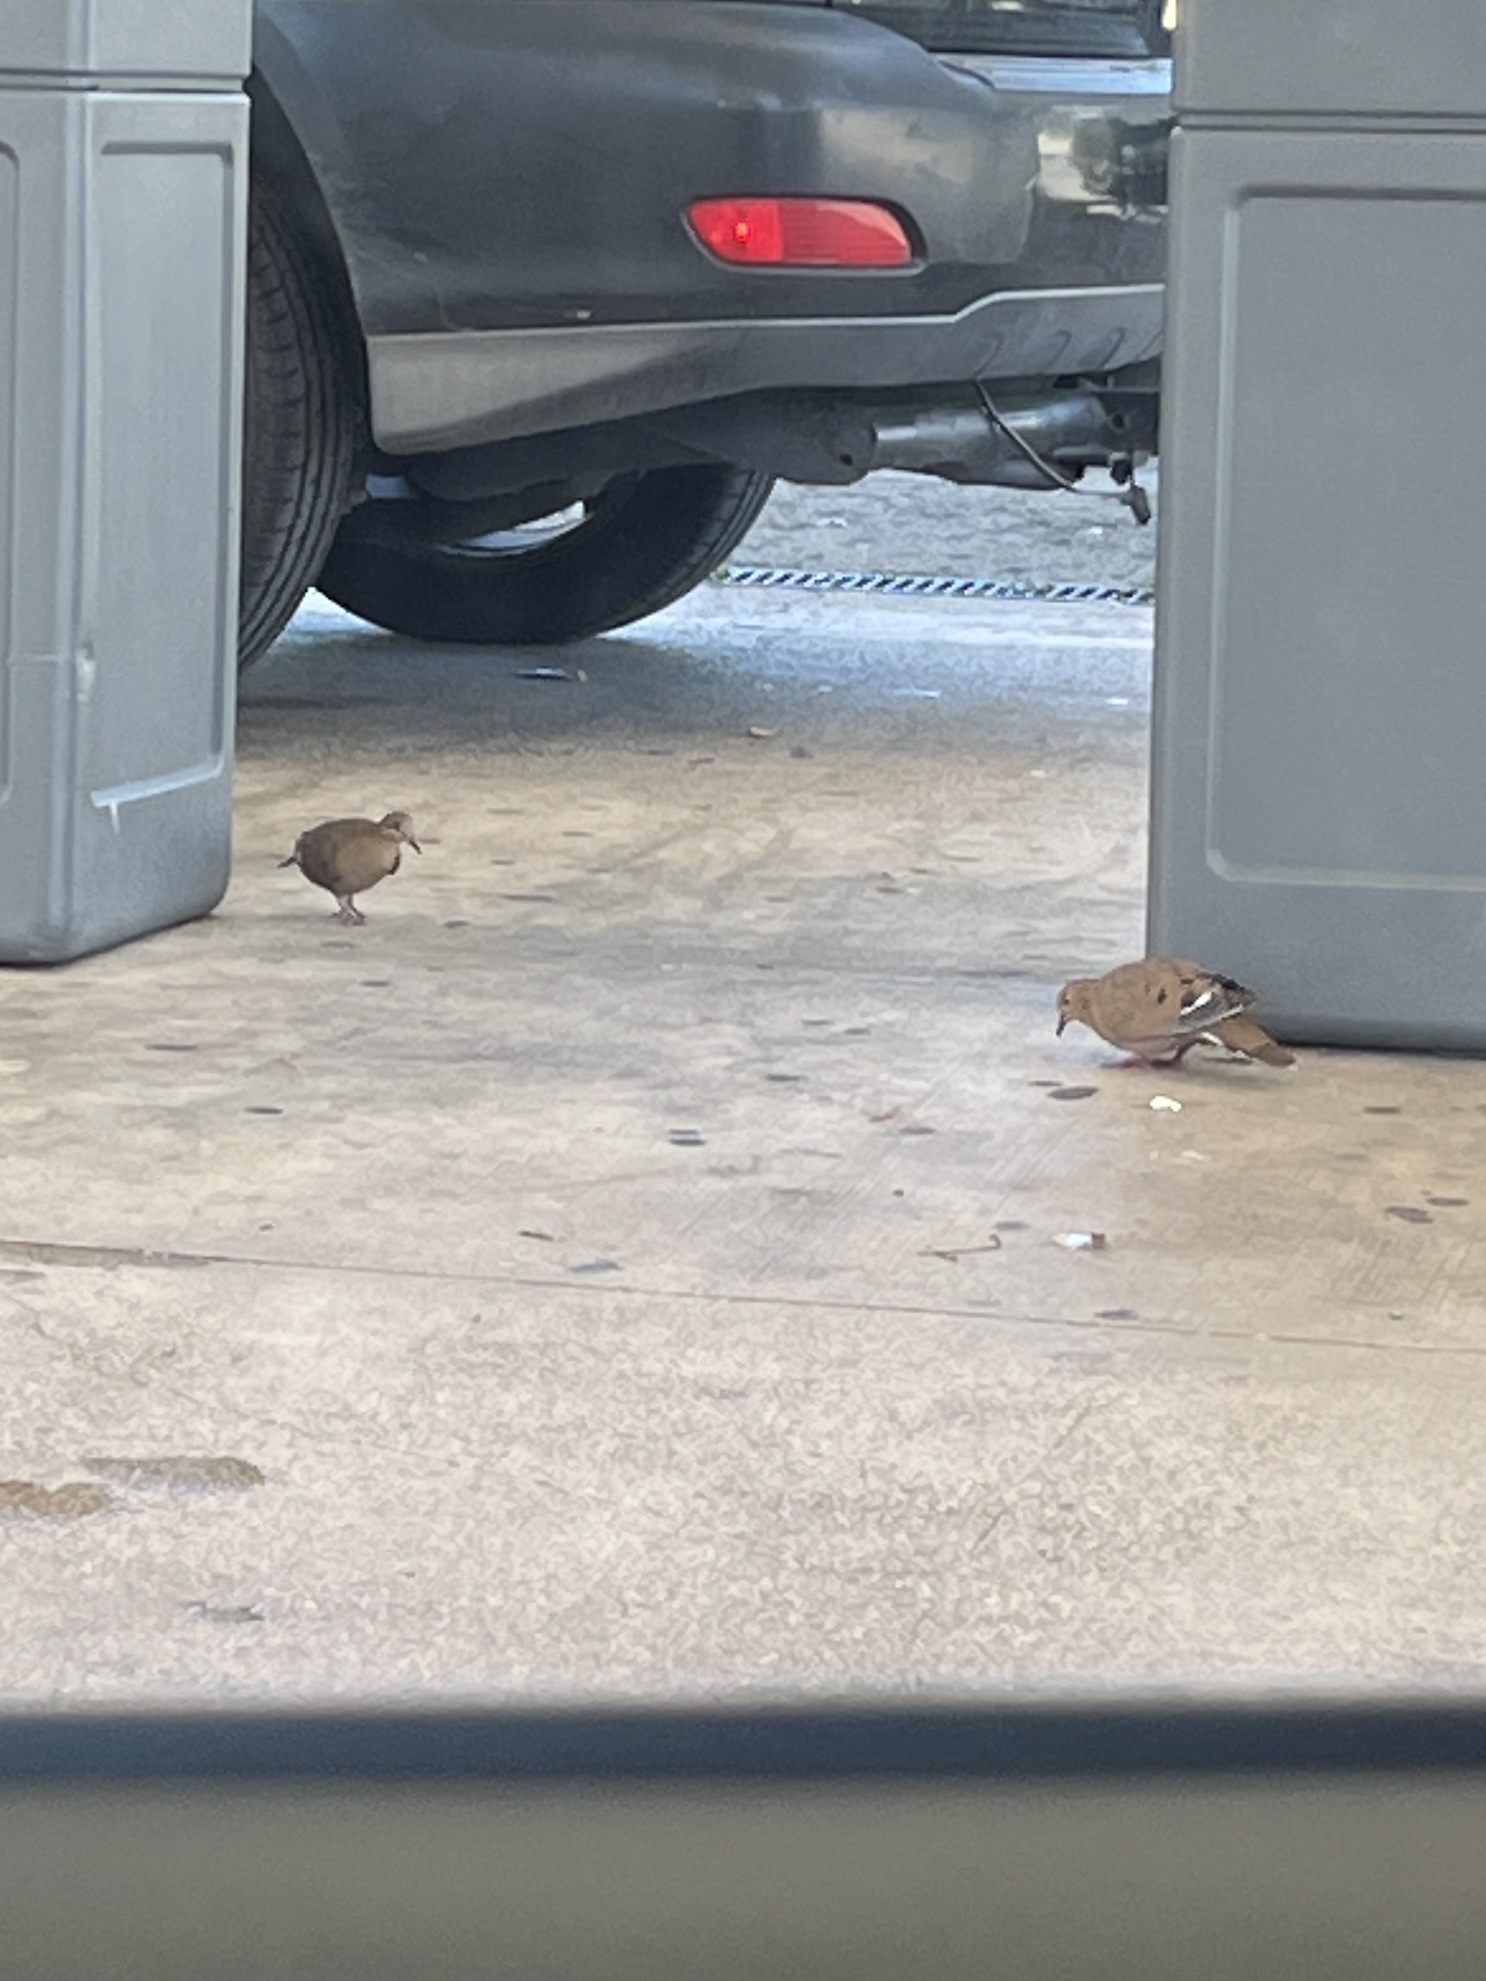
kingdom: Animalia
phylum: Chordata
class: Aves
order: Columbiformes
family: Columbidae
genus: Zenaida
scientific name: Zenaida aurita
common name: Zenaida dove
